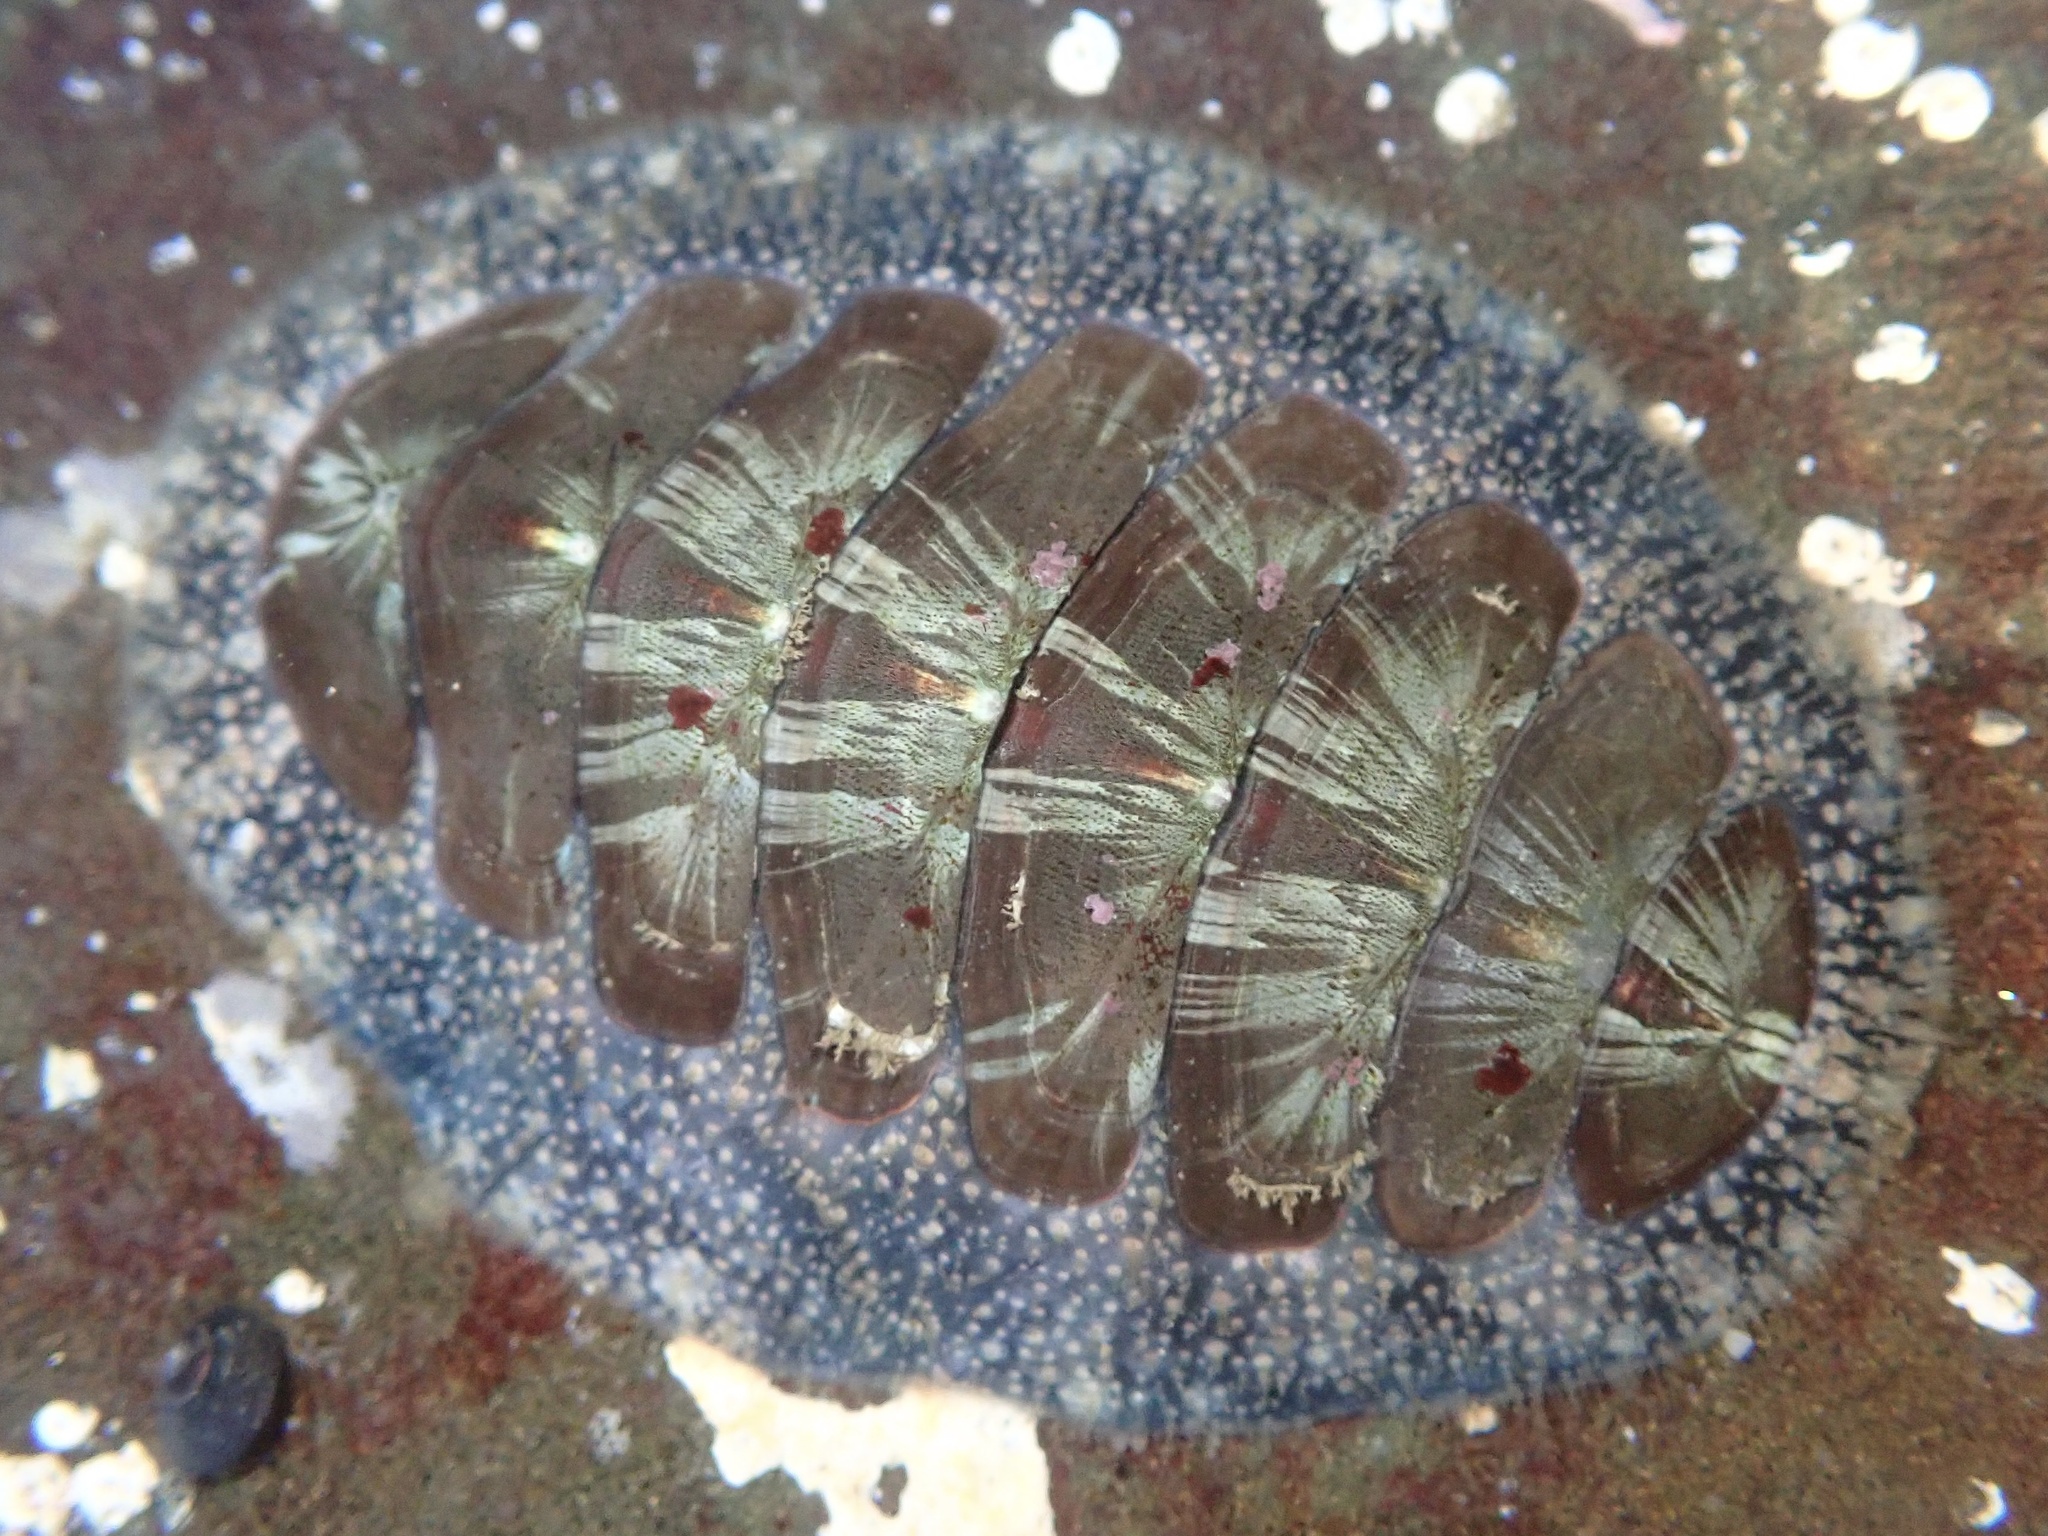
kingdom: Animalia
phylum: Mollusca
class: Polyplacophora
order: Chitonida
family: Mopaliidae
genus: Mopalia
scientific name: Mopalia lignosa
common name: Woody chiton
